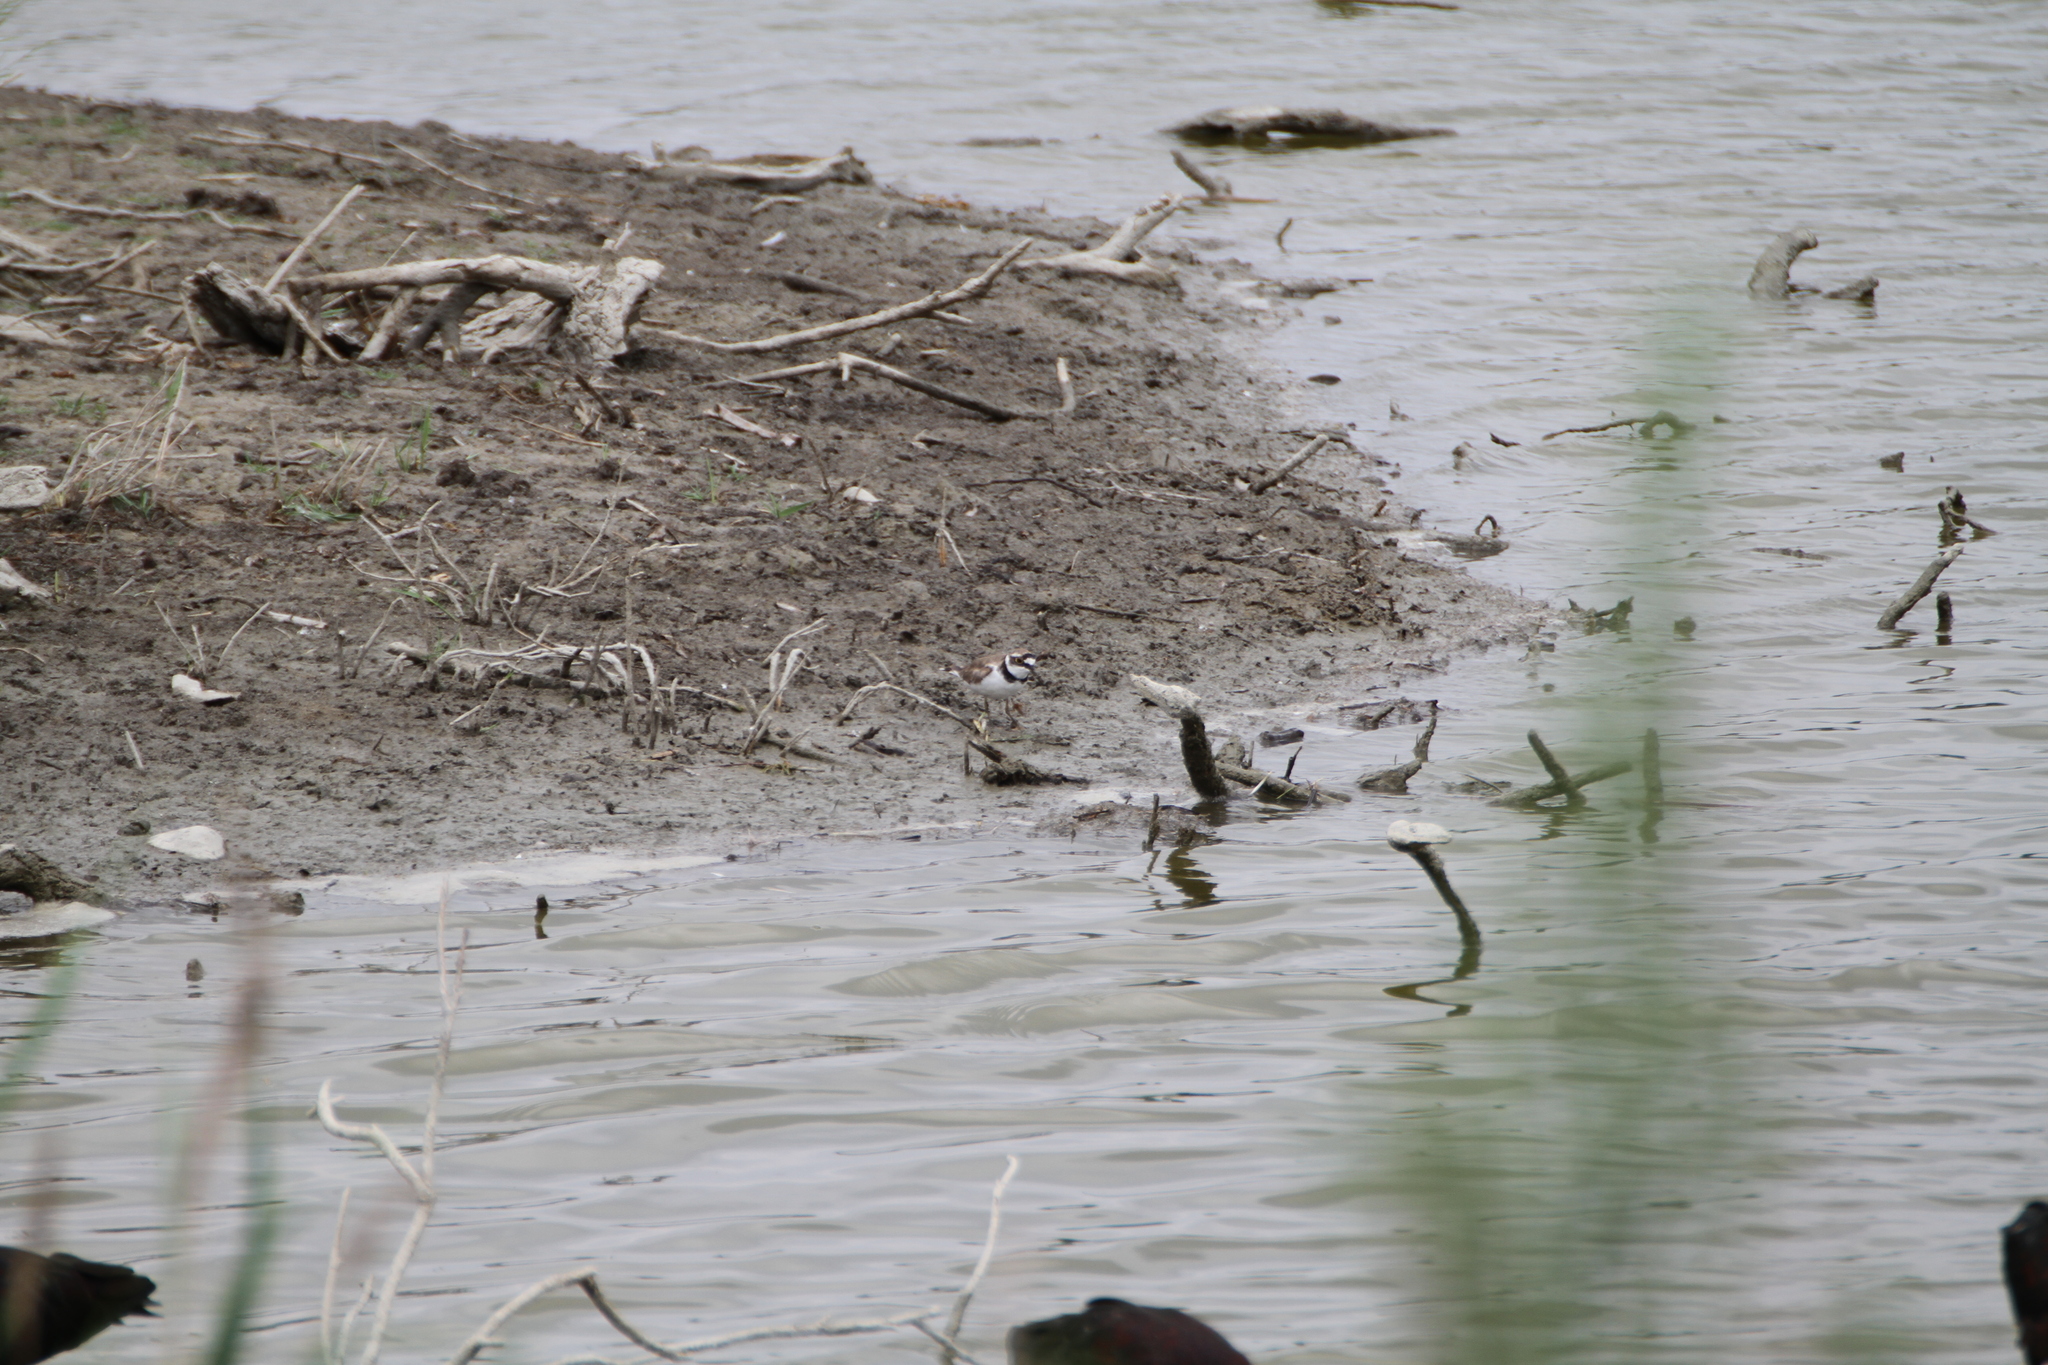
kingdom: Animalia
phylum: Chordata
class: Aves
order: Charadriiformes
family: Charadriidae
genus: Charadrius
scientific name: Charadrius dubius
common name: Little ringed plover
